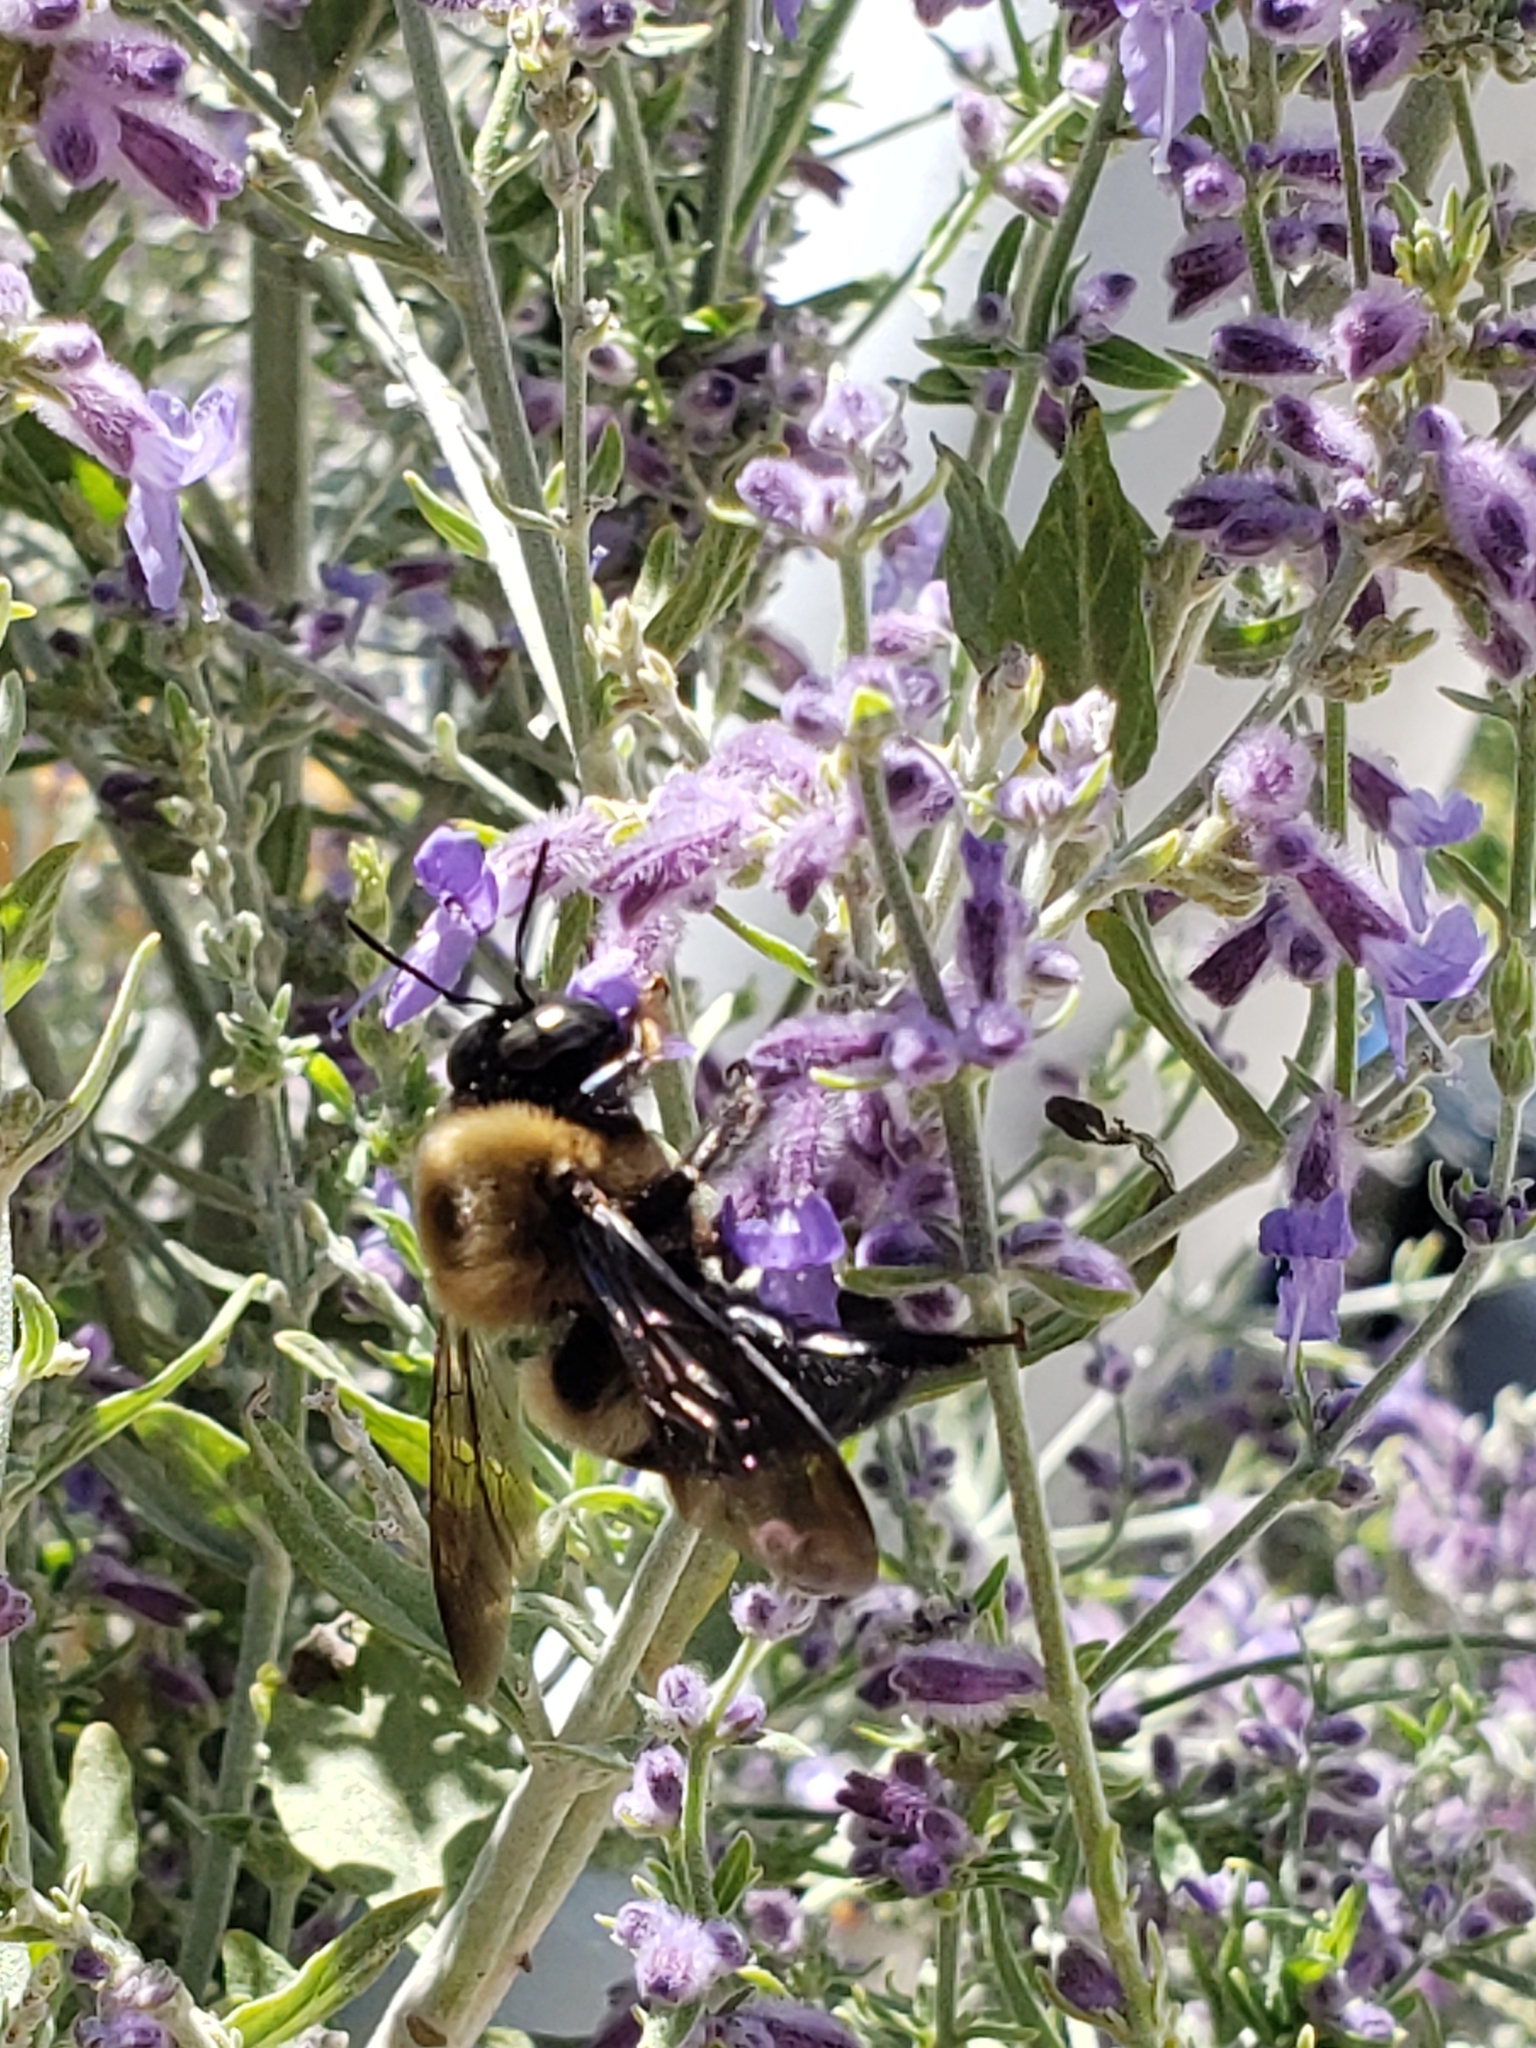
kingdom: Animalia
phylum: Arthropoda
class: Insecta
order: Hymenoptera
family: Apidae
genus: Xylocopa
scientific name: Xylocopa virginica
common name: Carpenter bee
